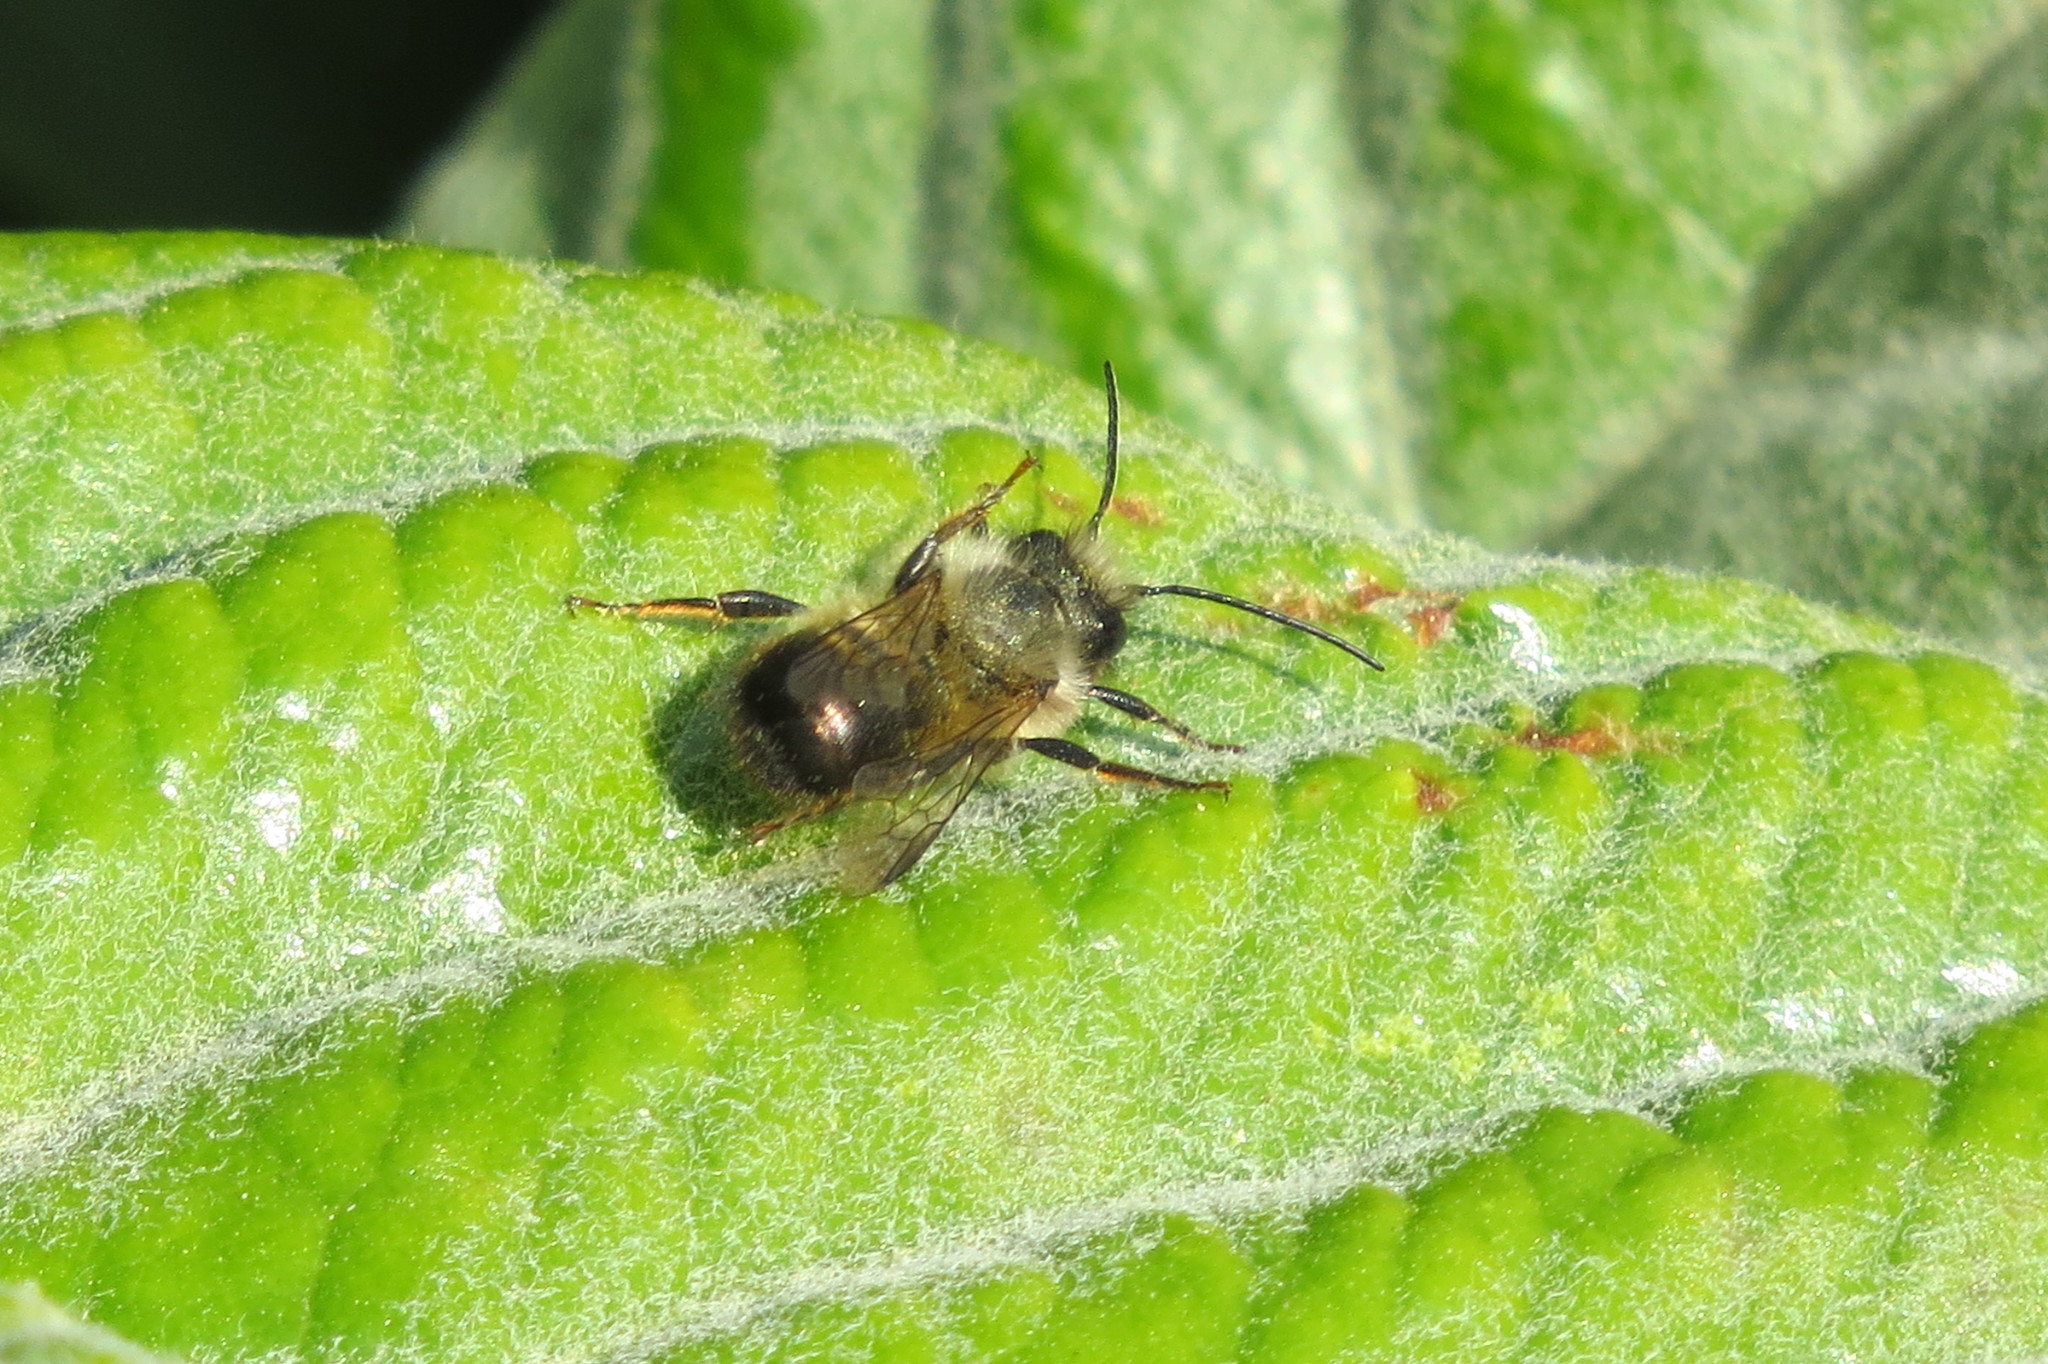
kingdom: Animalia
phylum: Arthropoda
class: Insecta
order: Hymenoptera
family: Megachilidae
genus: Osmia
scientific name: Osmia bicornis
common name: Red mason bee
